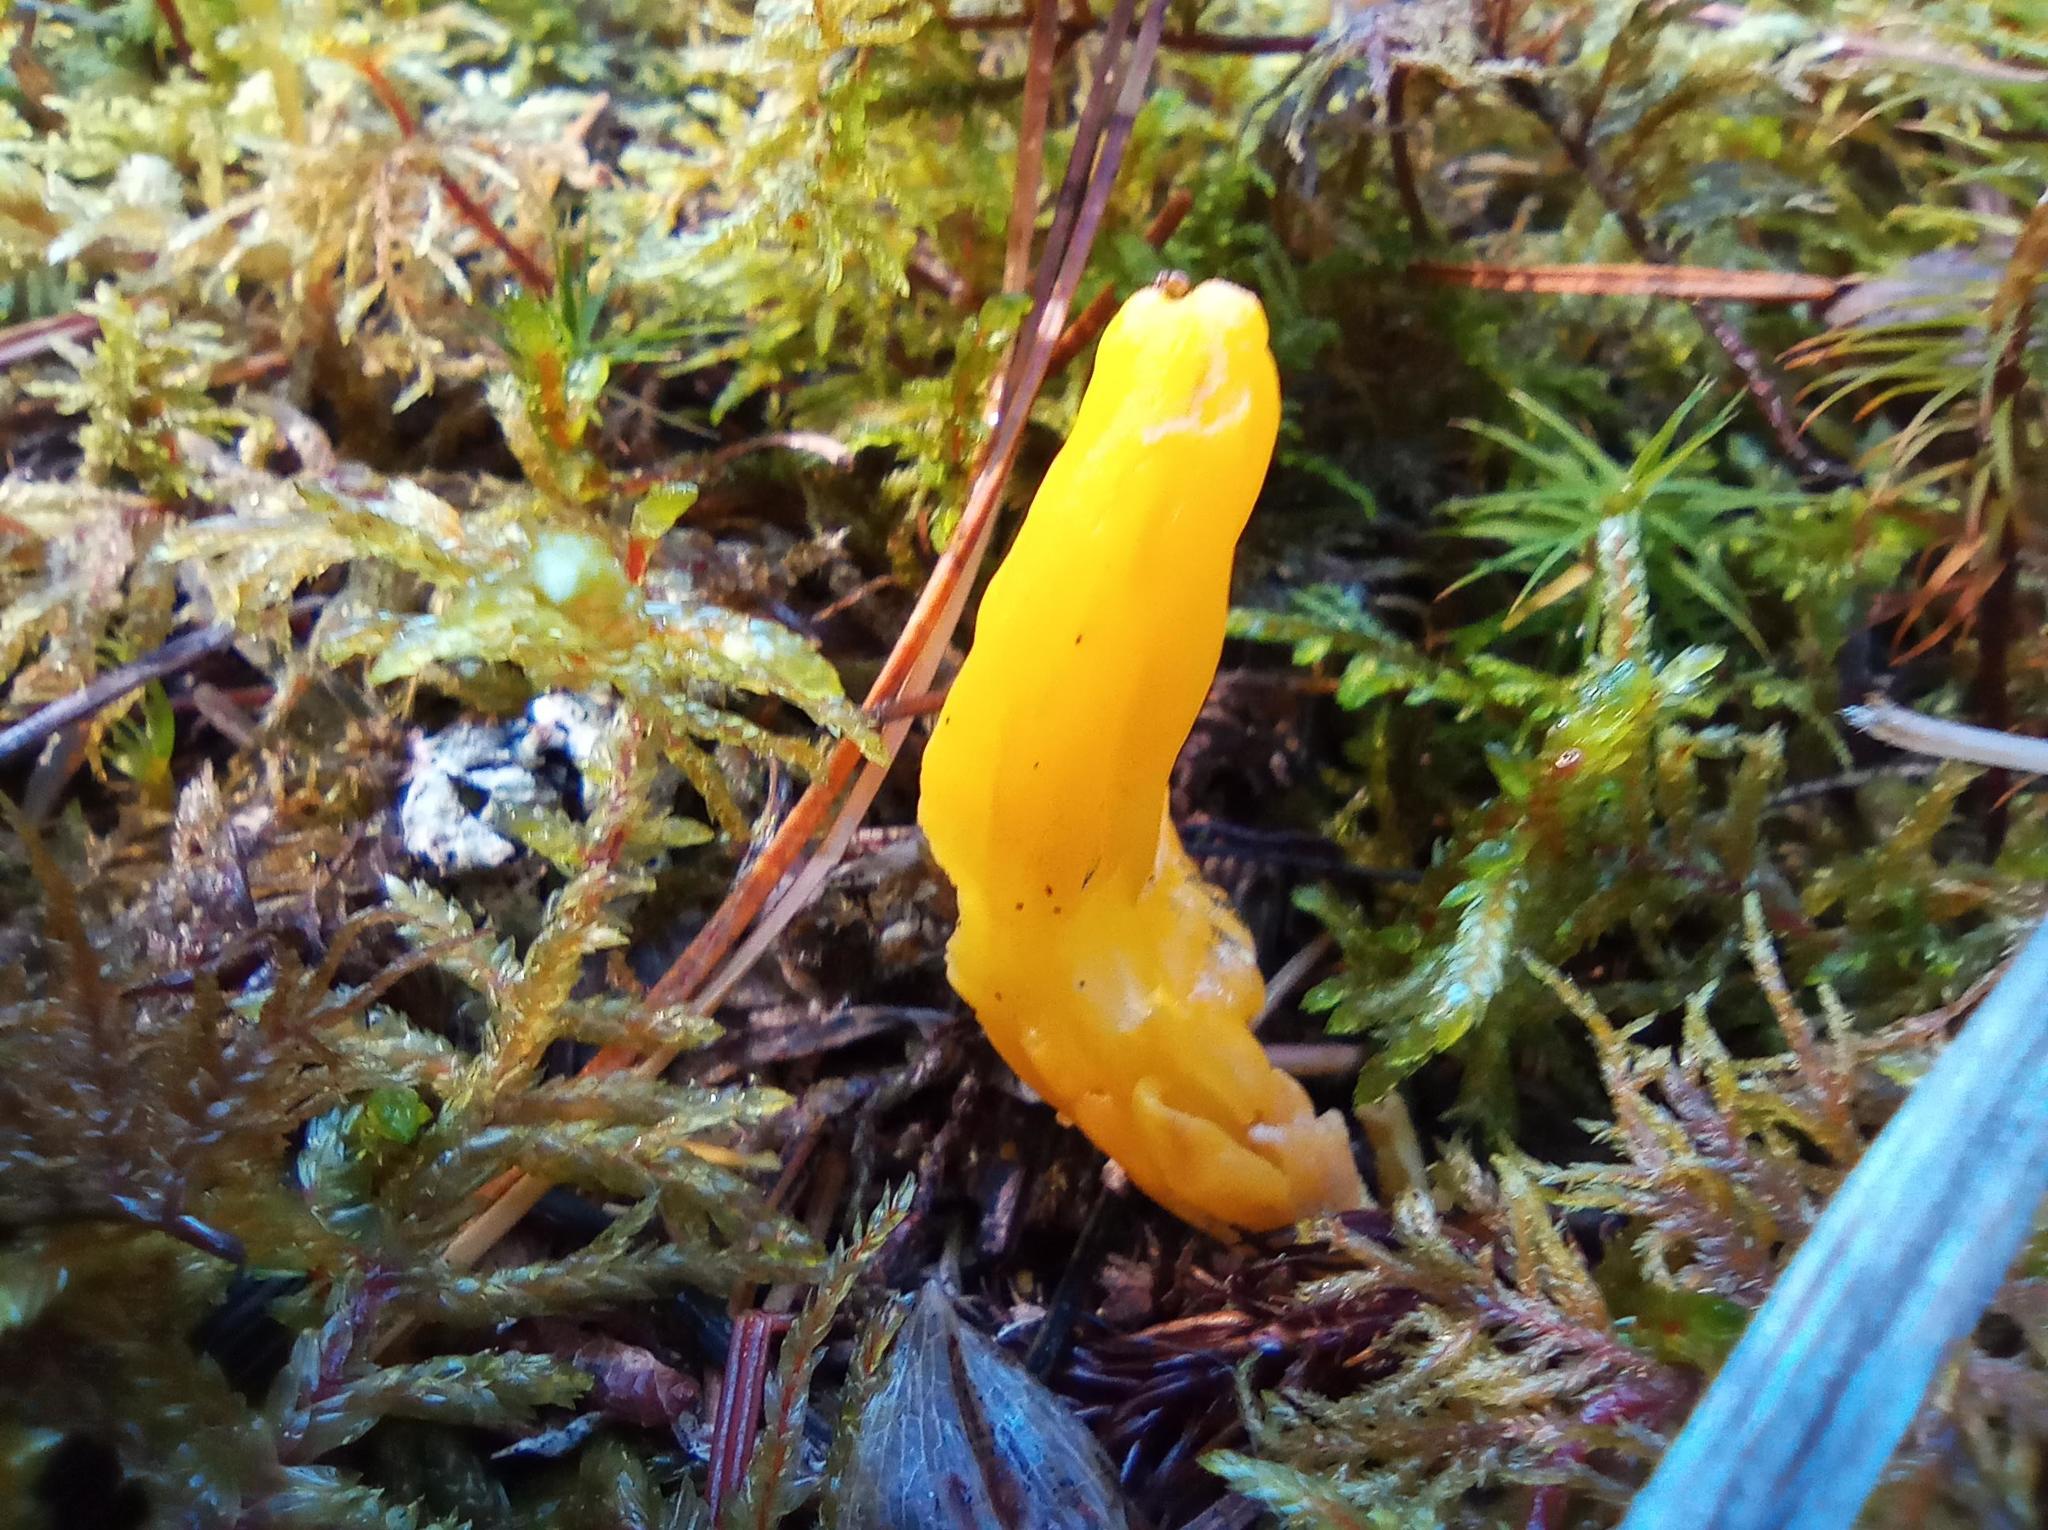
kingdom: Fungi
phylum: Ascomycota
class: Neolectomycetes
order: Neolectales
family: Neolectaceae
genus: Neolecta
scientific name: Neolecta vitellina
